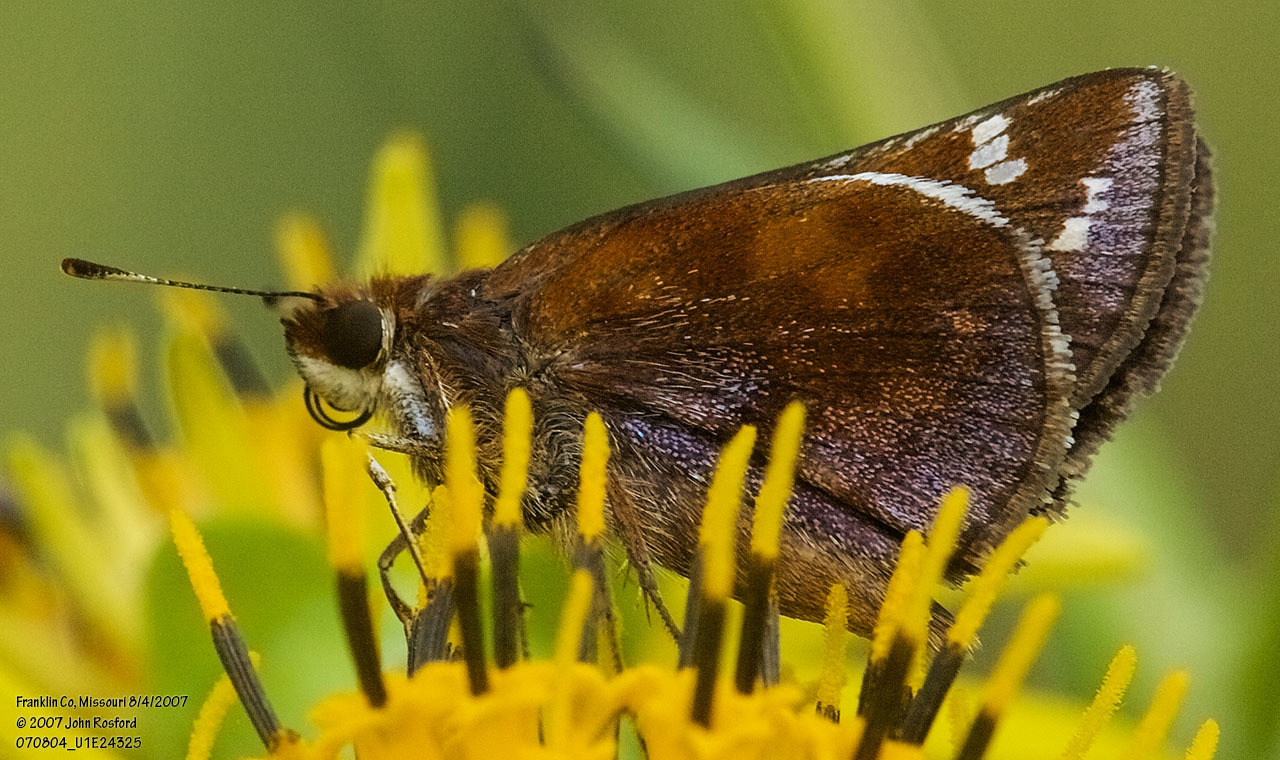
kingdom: Animalia
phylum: Arthropoda
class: Insecta
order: Lepidoptera
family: Hesperiidae
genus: Lon
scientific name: Lon zabulon
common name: Zabulon skipper
